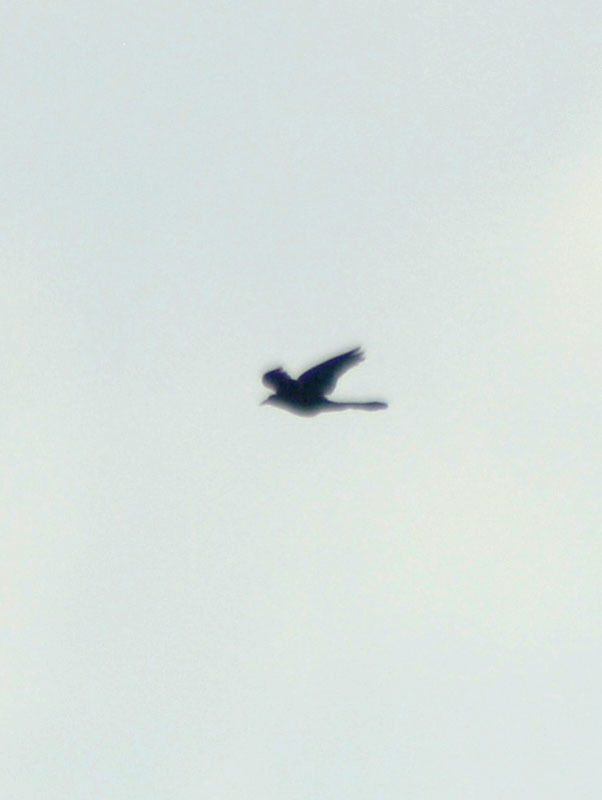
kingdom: Animalia
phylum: Chordata
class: Aves
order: Passeriformes
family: Icteridae
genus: Quiscalus
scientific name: Quiscalus mexicanus
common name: Great-tailed grackle
